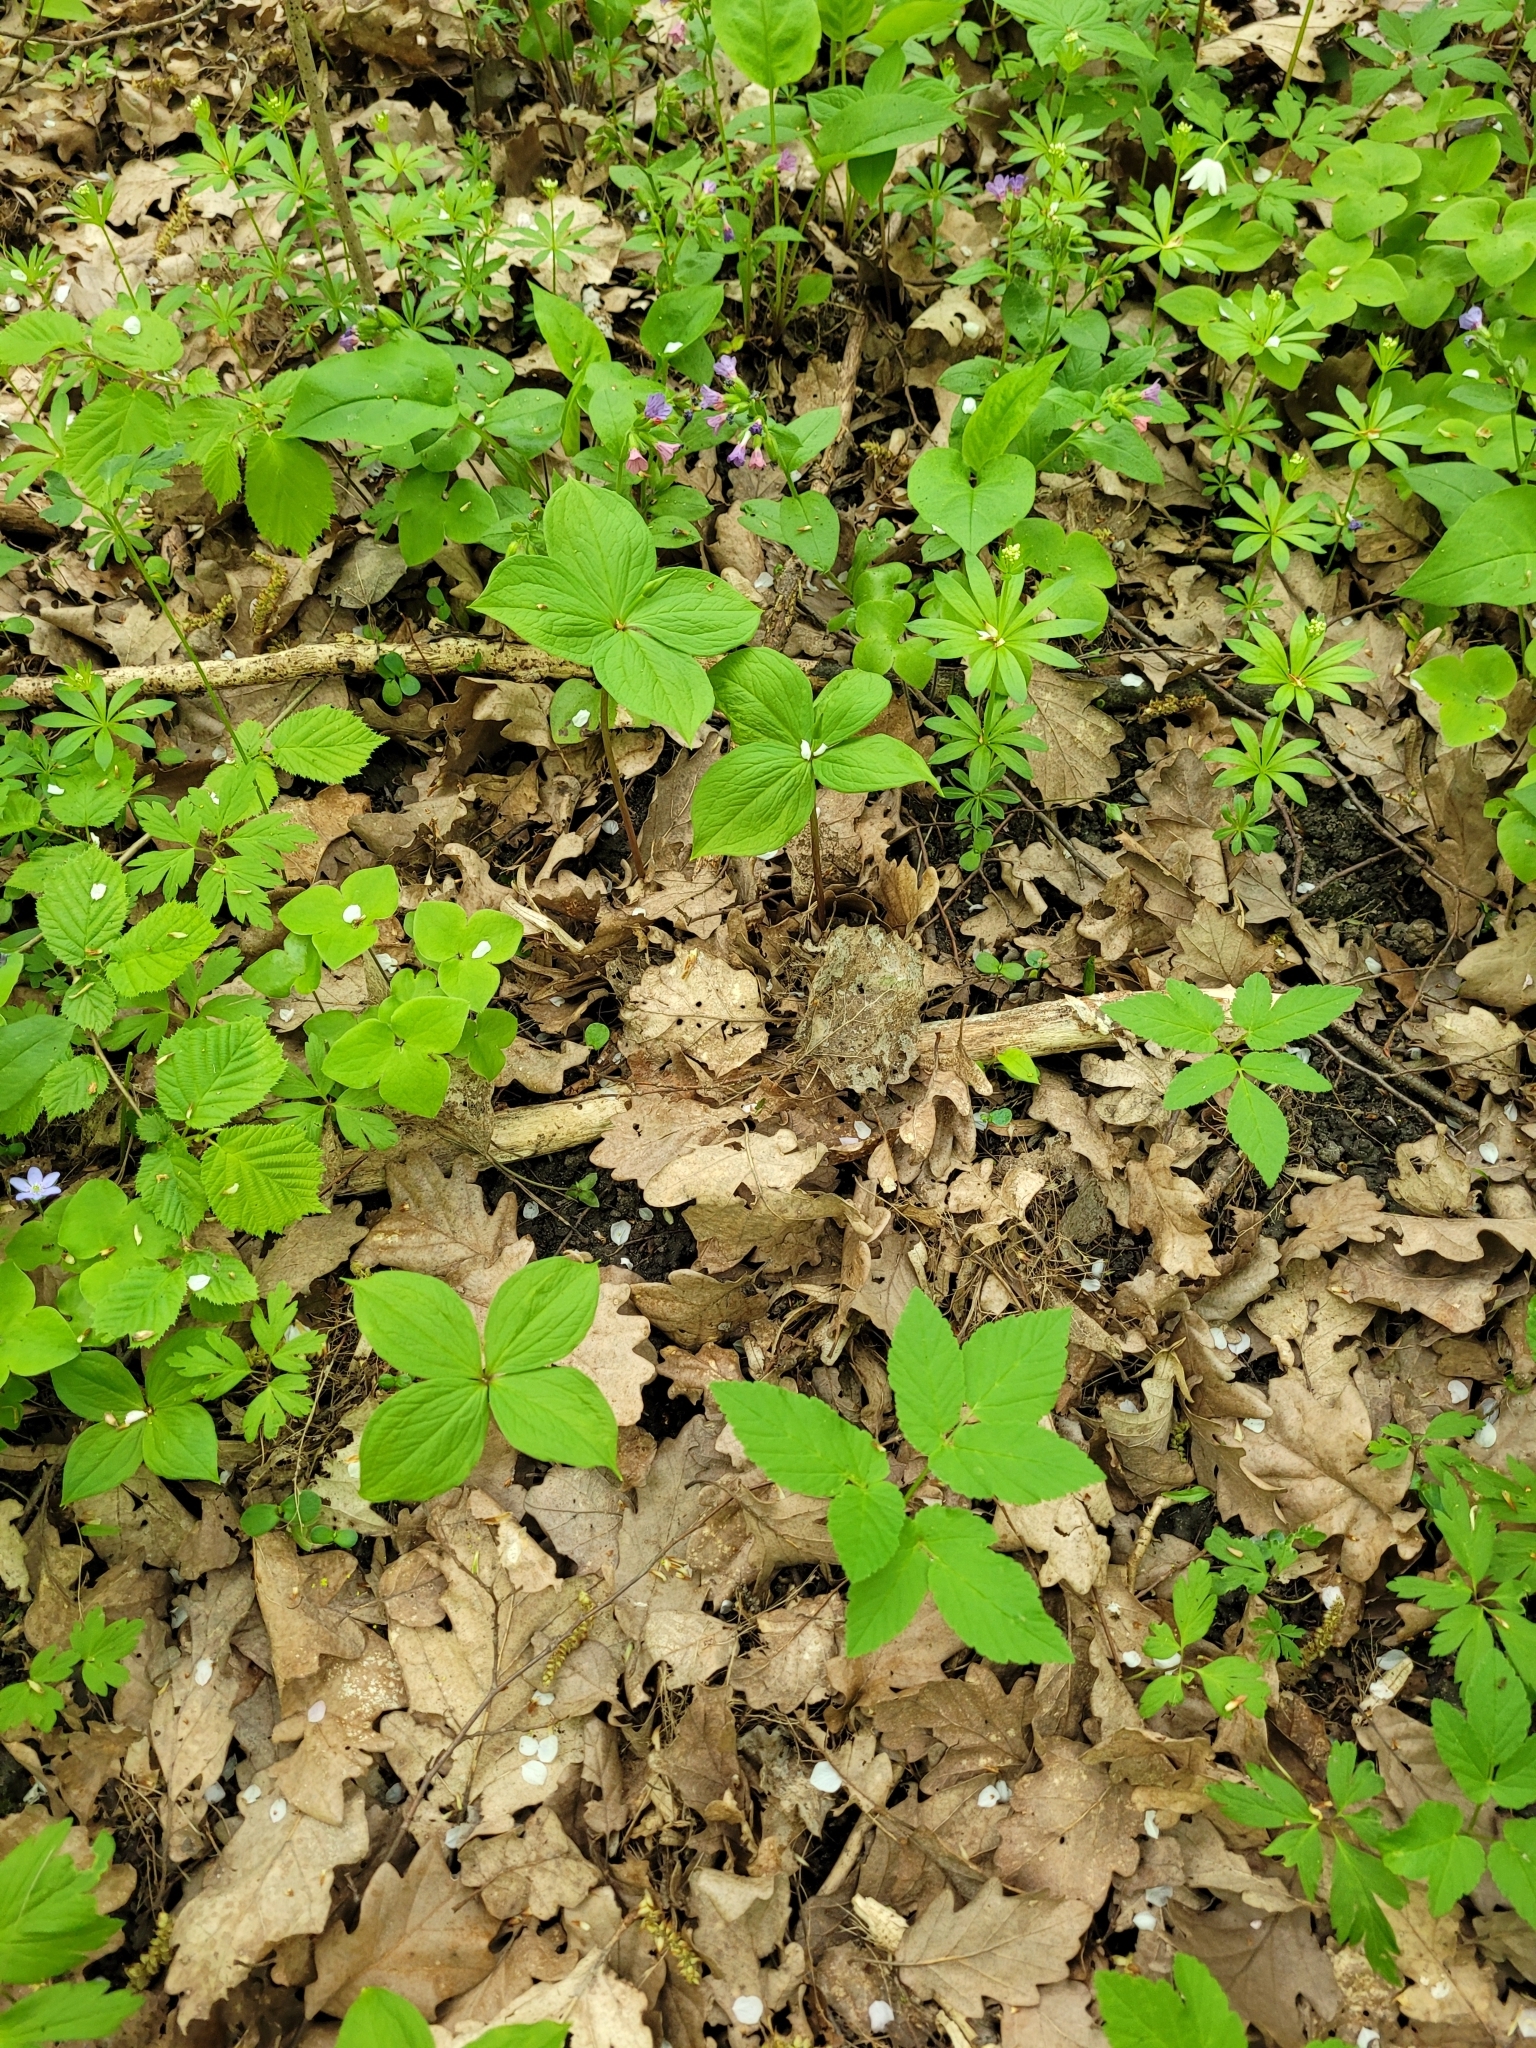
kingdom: Plantae
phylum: Tracheophyta
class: Liliopsida
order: Liliales
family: Melanthiaceae
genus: Paris
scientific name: Paris quadrifolia
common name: Herb-paris
